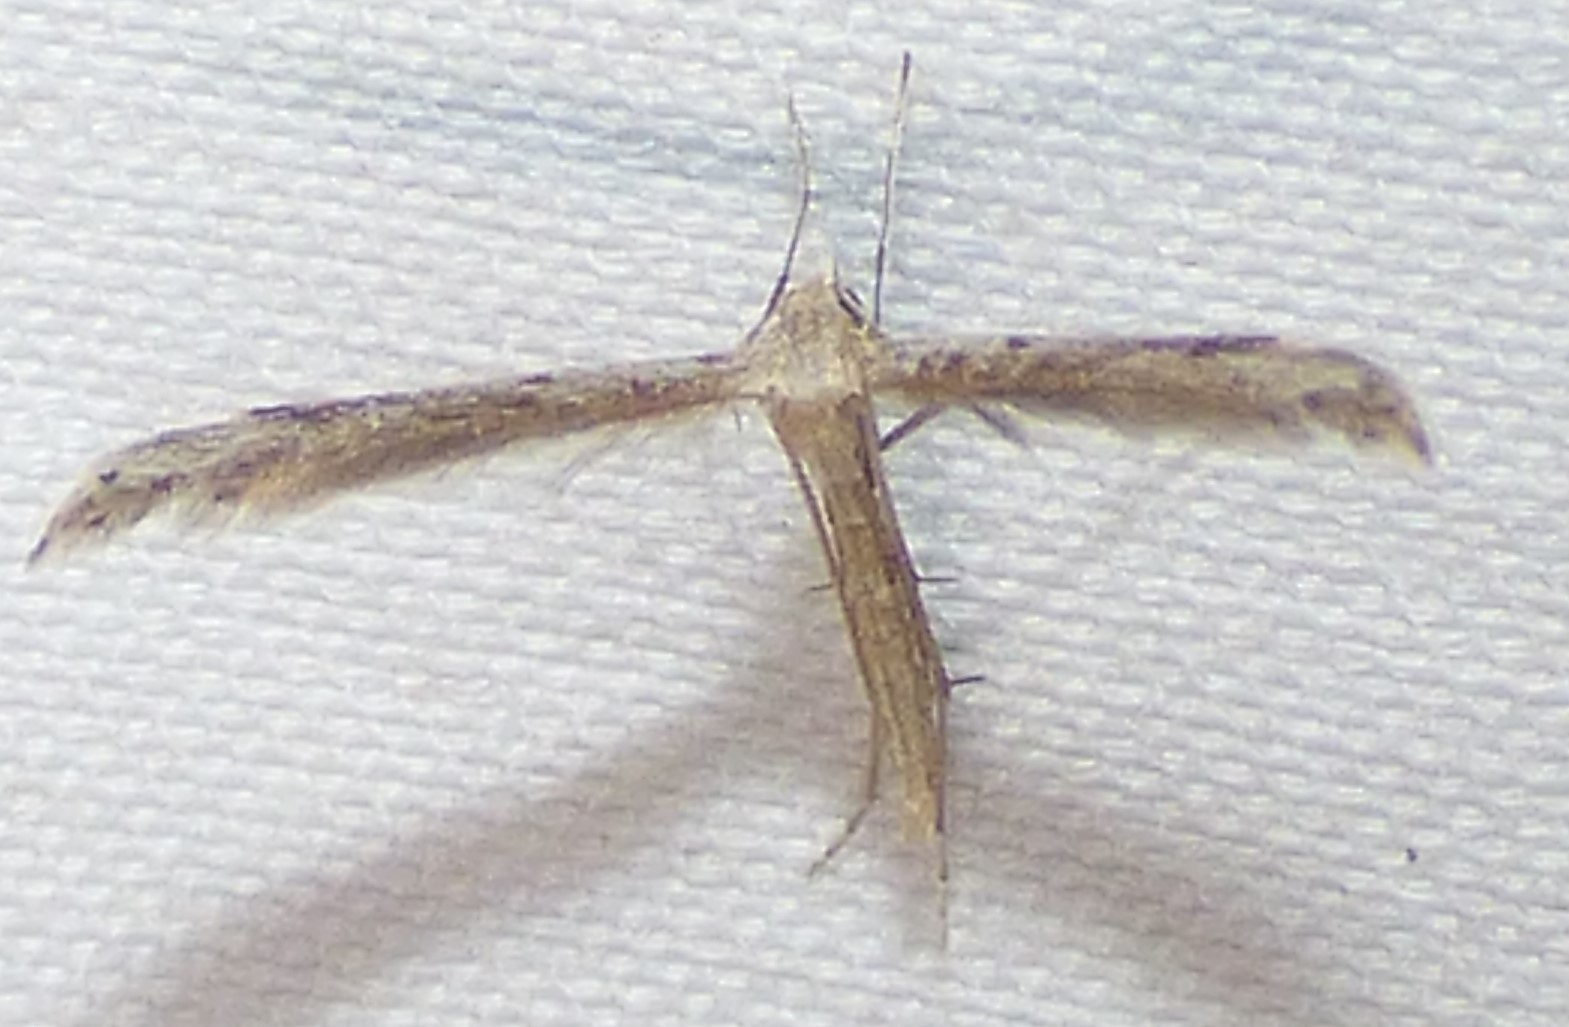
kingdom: Animalia
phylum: Arthropoda
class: Insecta
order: Lepidoptera
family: Pterophoridae
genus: Lioptilodes
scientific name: Lioptilodes albistriolatus
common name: Moth
